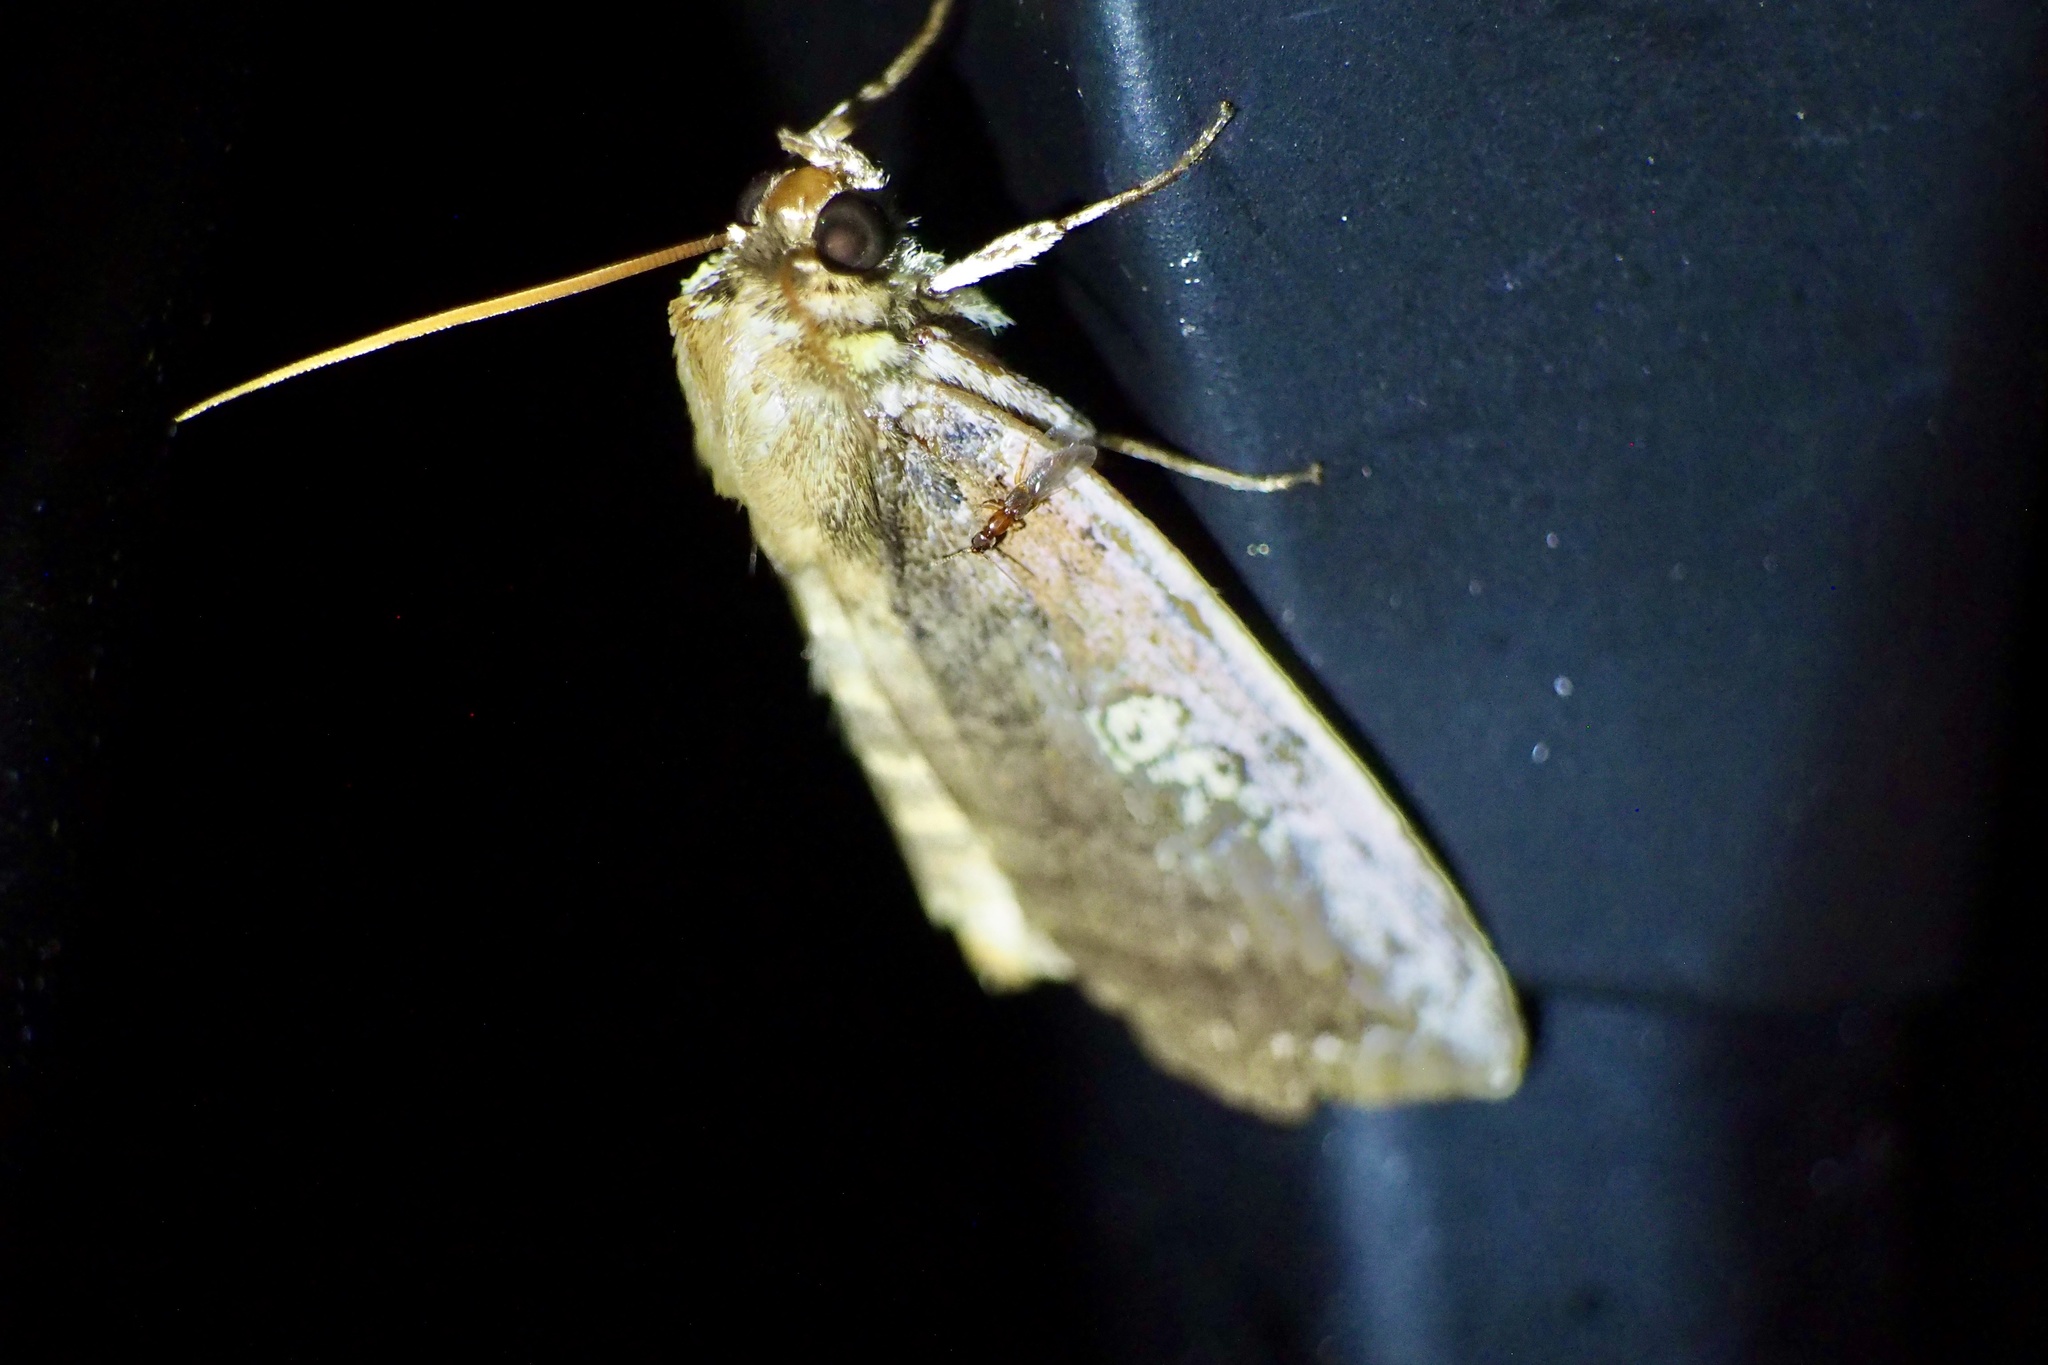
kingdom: Animalia
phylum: Arthropoda
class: Insecta
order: Lepidoptera
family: Drepanidae
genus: Tethea
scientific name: Tethea consimilis
